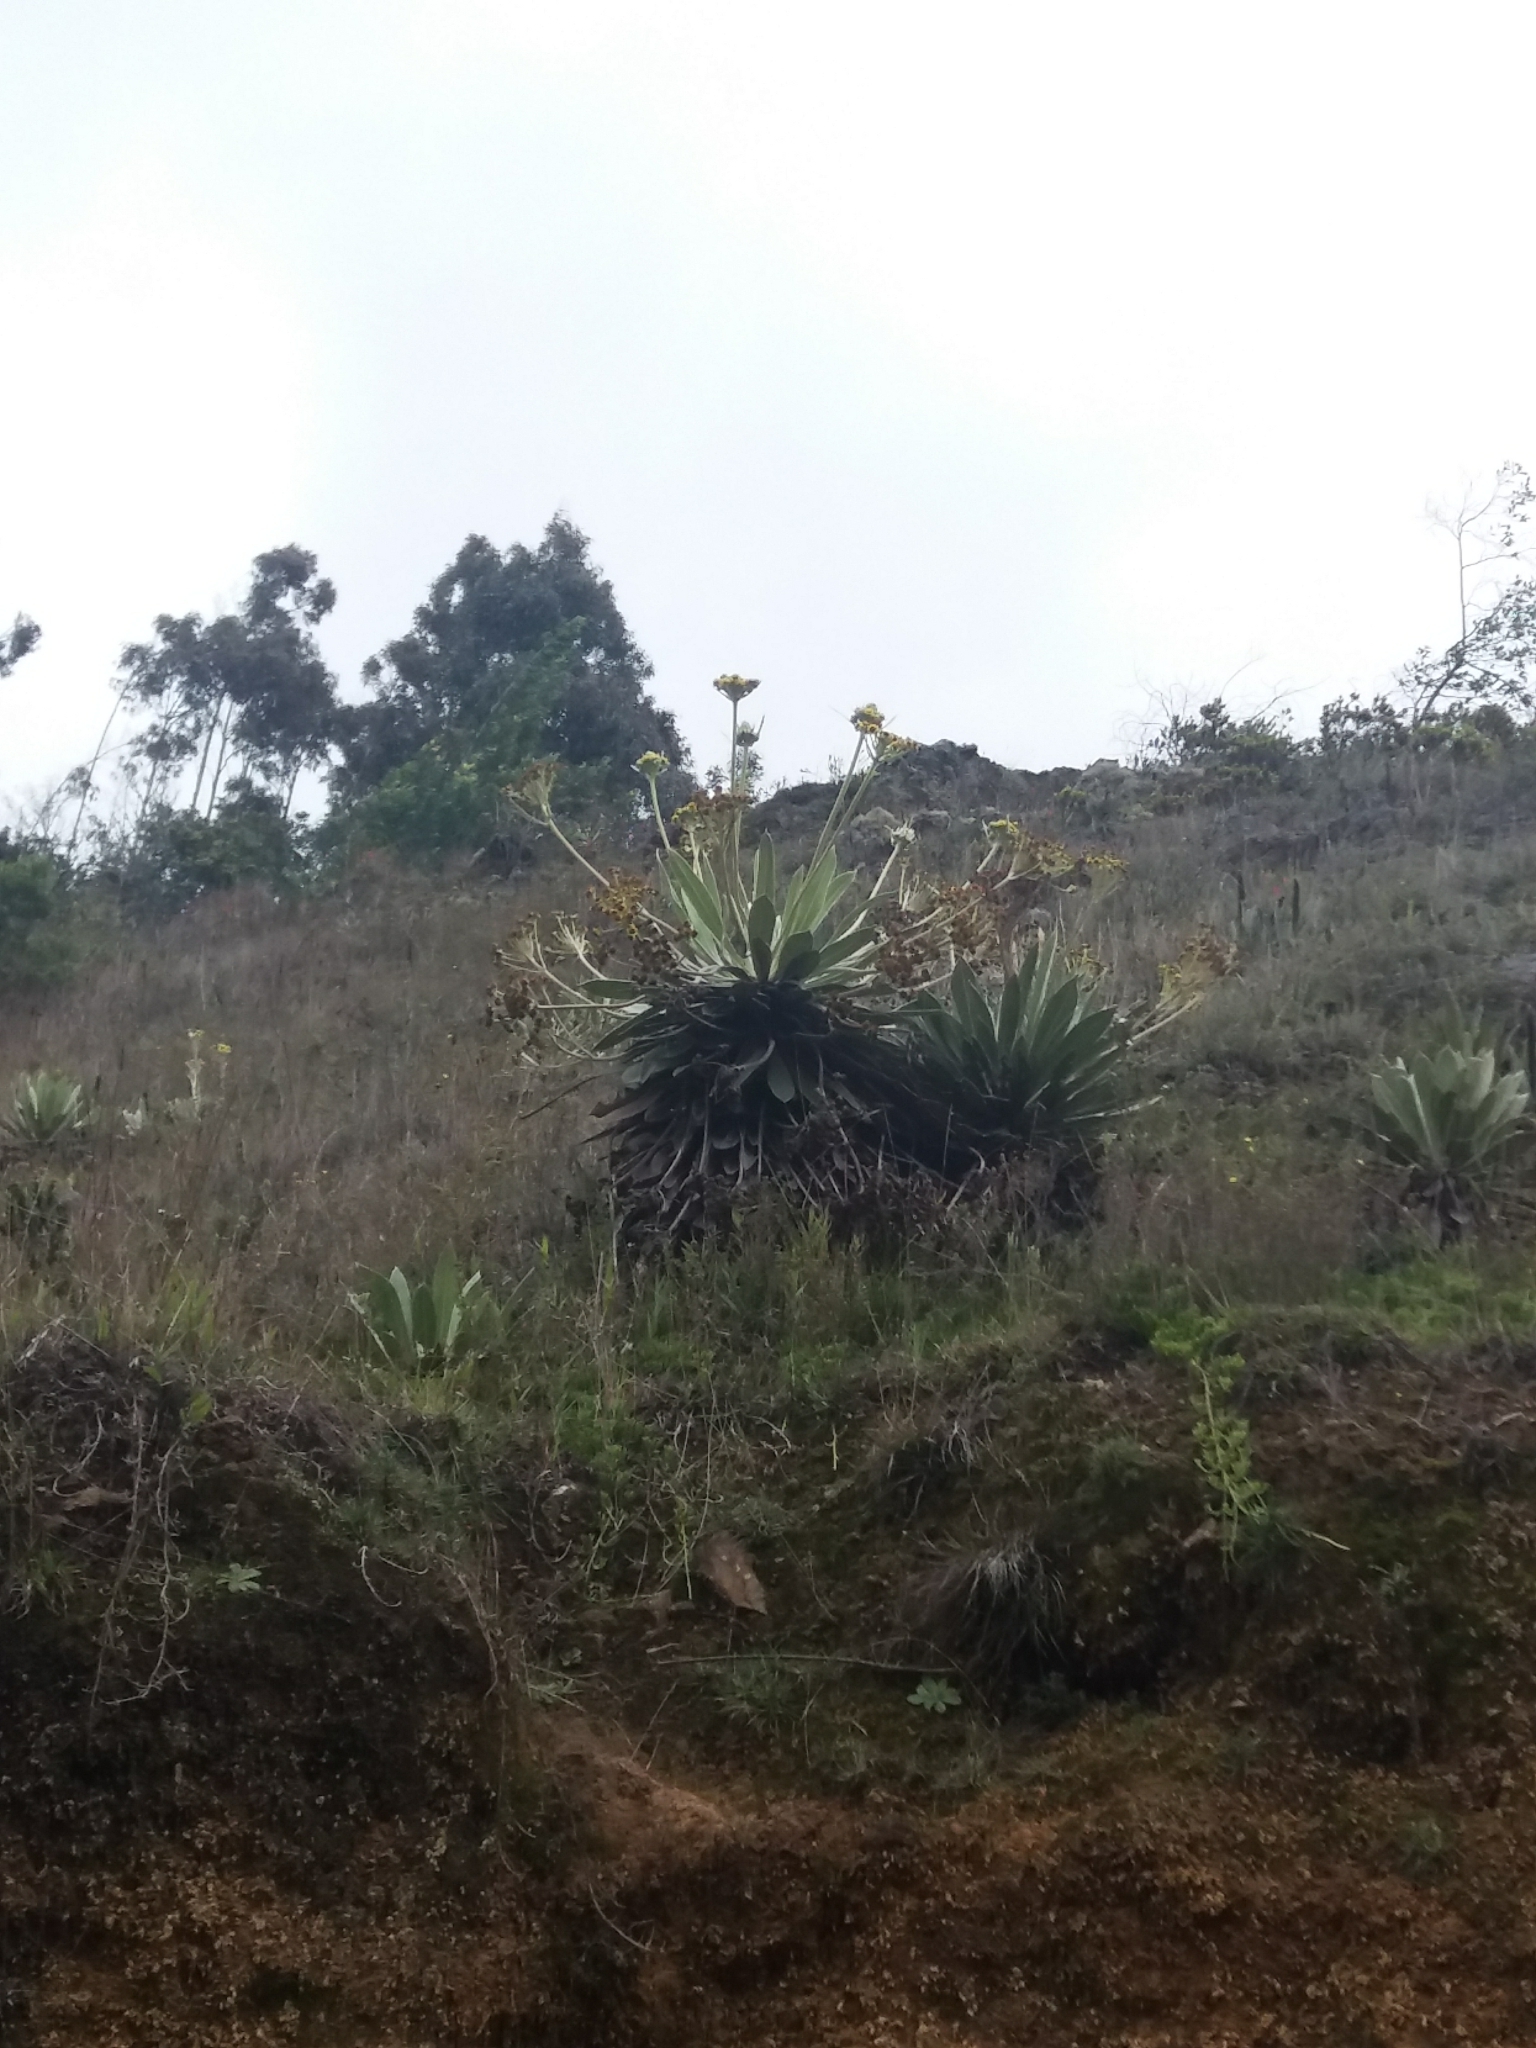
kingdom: Plantae
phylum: Tracheophyta
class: Magnoliopsida
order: Asterales
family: Asteraceae
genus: Espeletia
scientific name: Espeletia corymbosa
